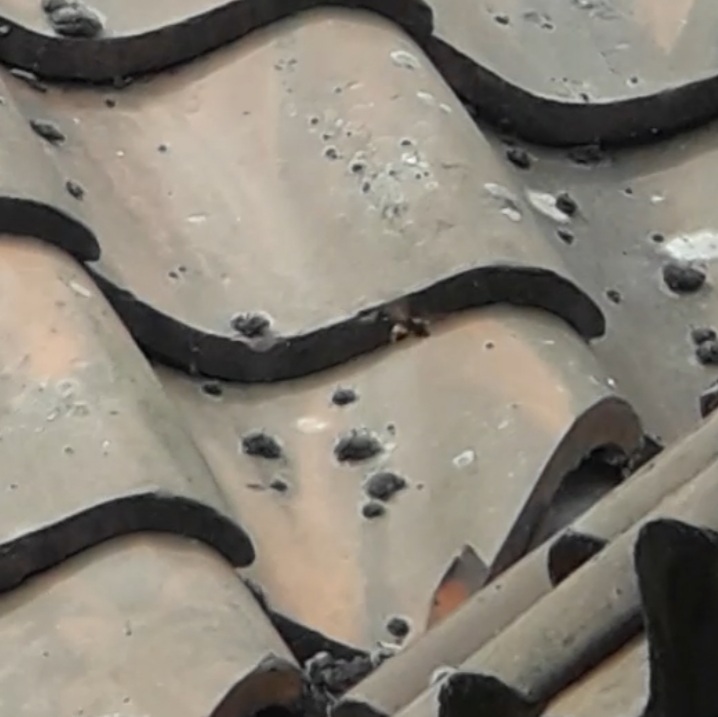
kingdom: Animalia
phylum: Arthropoda
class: Insecta
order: Hymenoptera
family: Vespidae
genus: Vespa
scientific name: Vespa velutina
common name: Asian hornet
